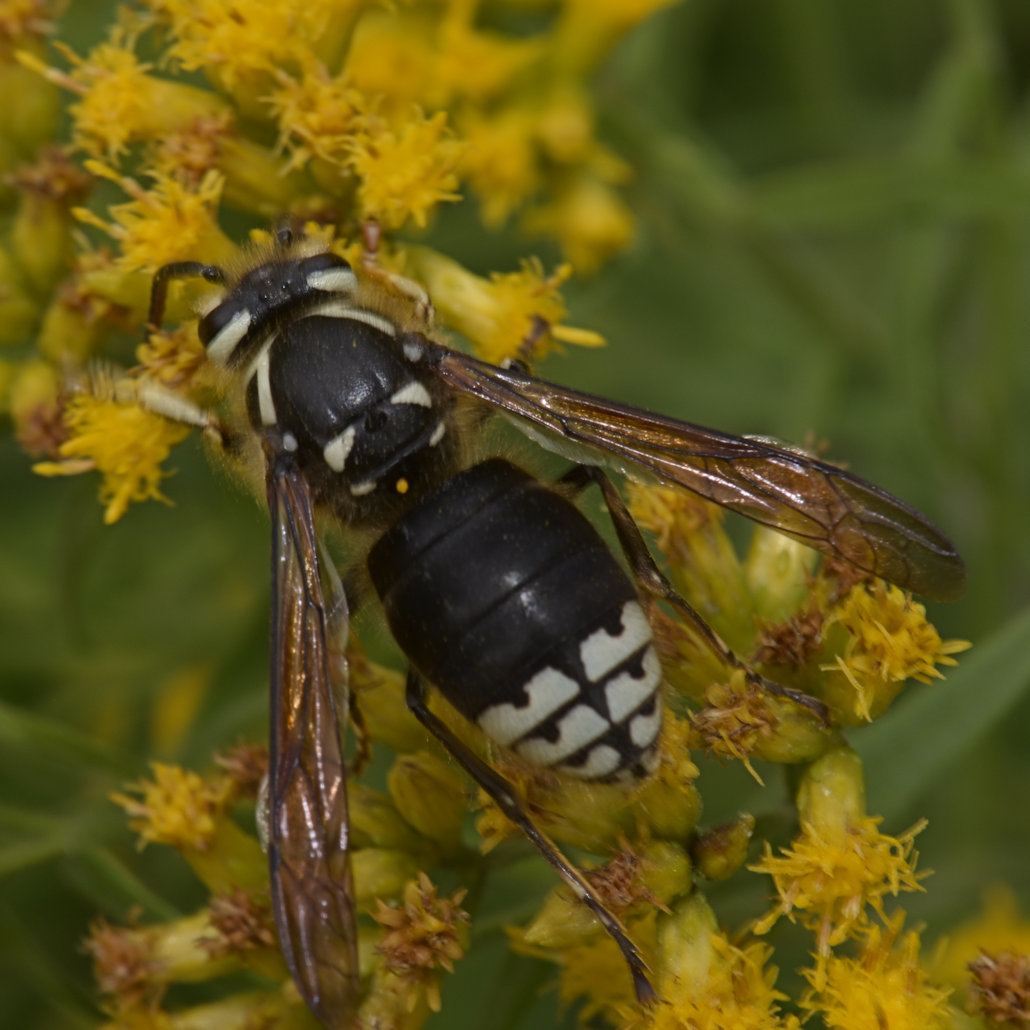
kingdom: Animalia
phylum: Arthropoda
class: Insecta
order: Hymenoptera
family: Vespidae
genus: Dolichovespula
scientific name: Dolichovespula maculata
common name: Bald-faced hornet
